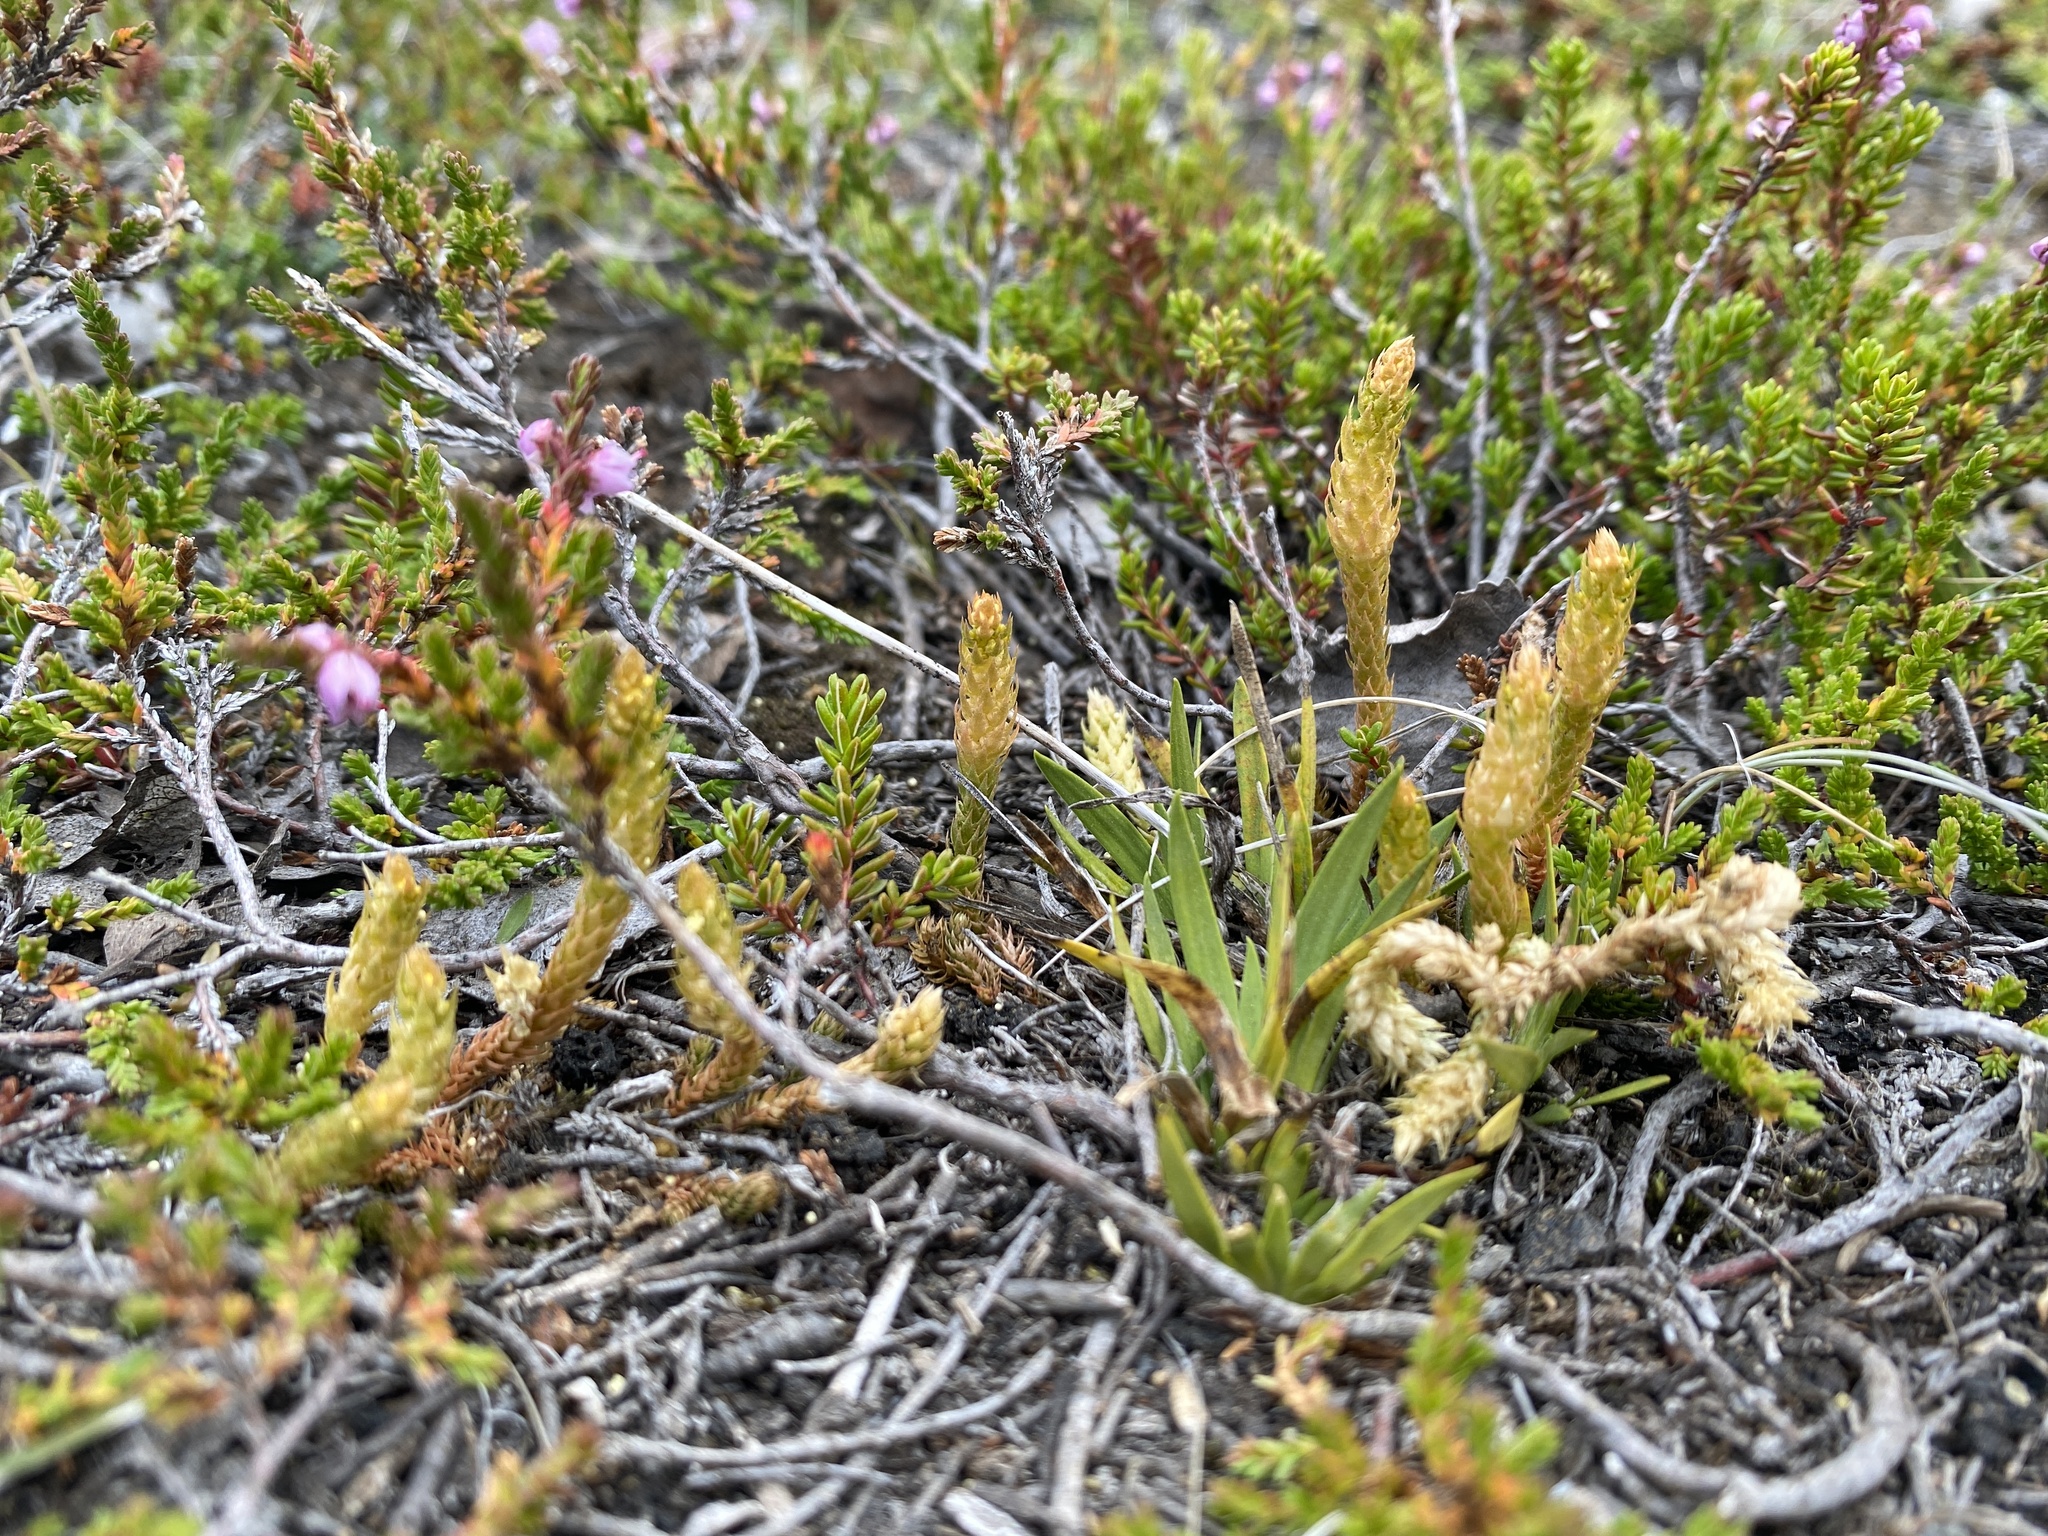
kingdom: Plantae
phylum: Tracheophyta
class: Lycopodiopsida
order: Selaginellales
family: Selaginellaceae
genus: Selaginella
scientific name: Selaginella selaginoides
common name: Prickly mountain-moss
